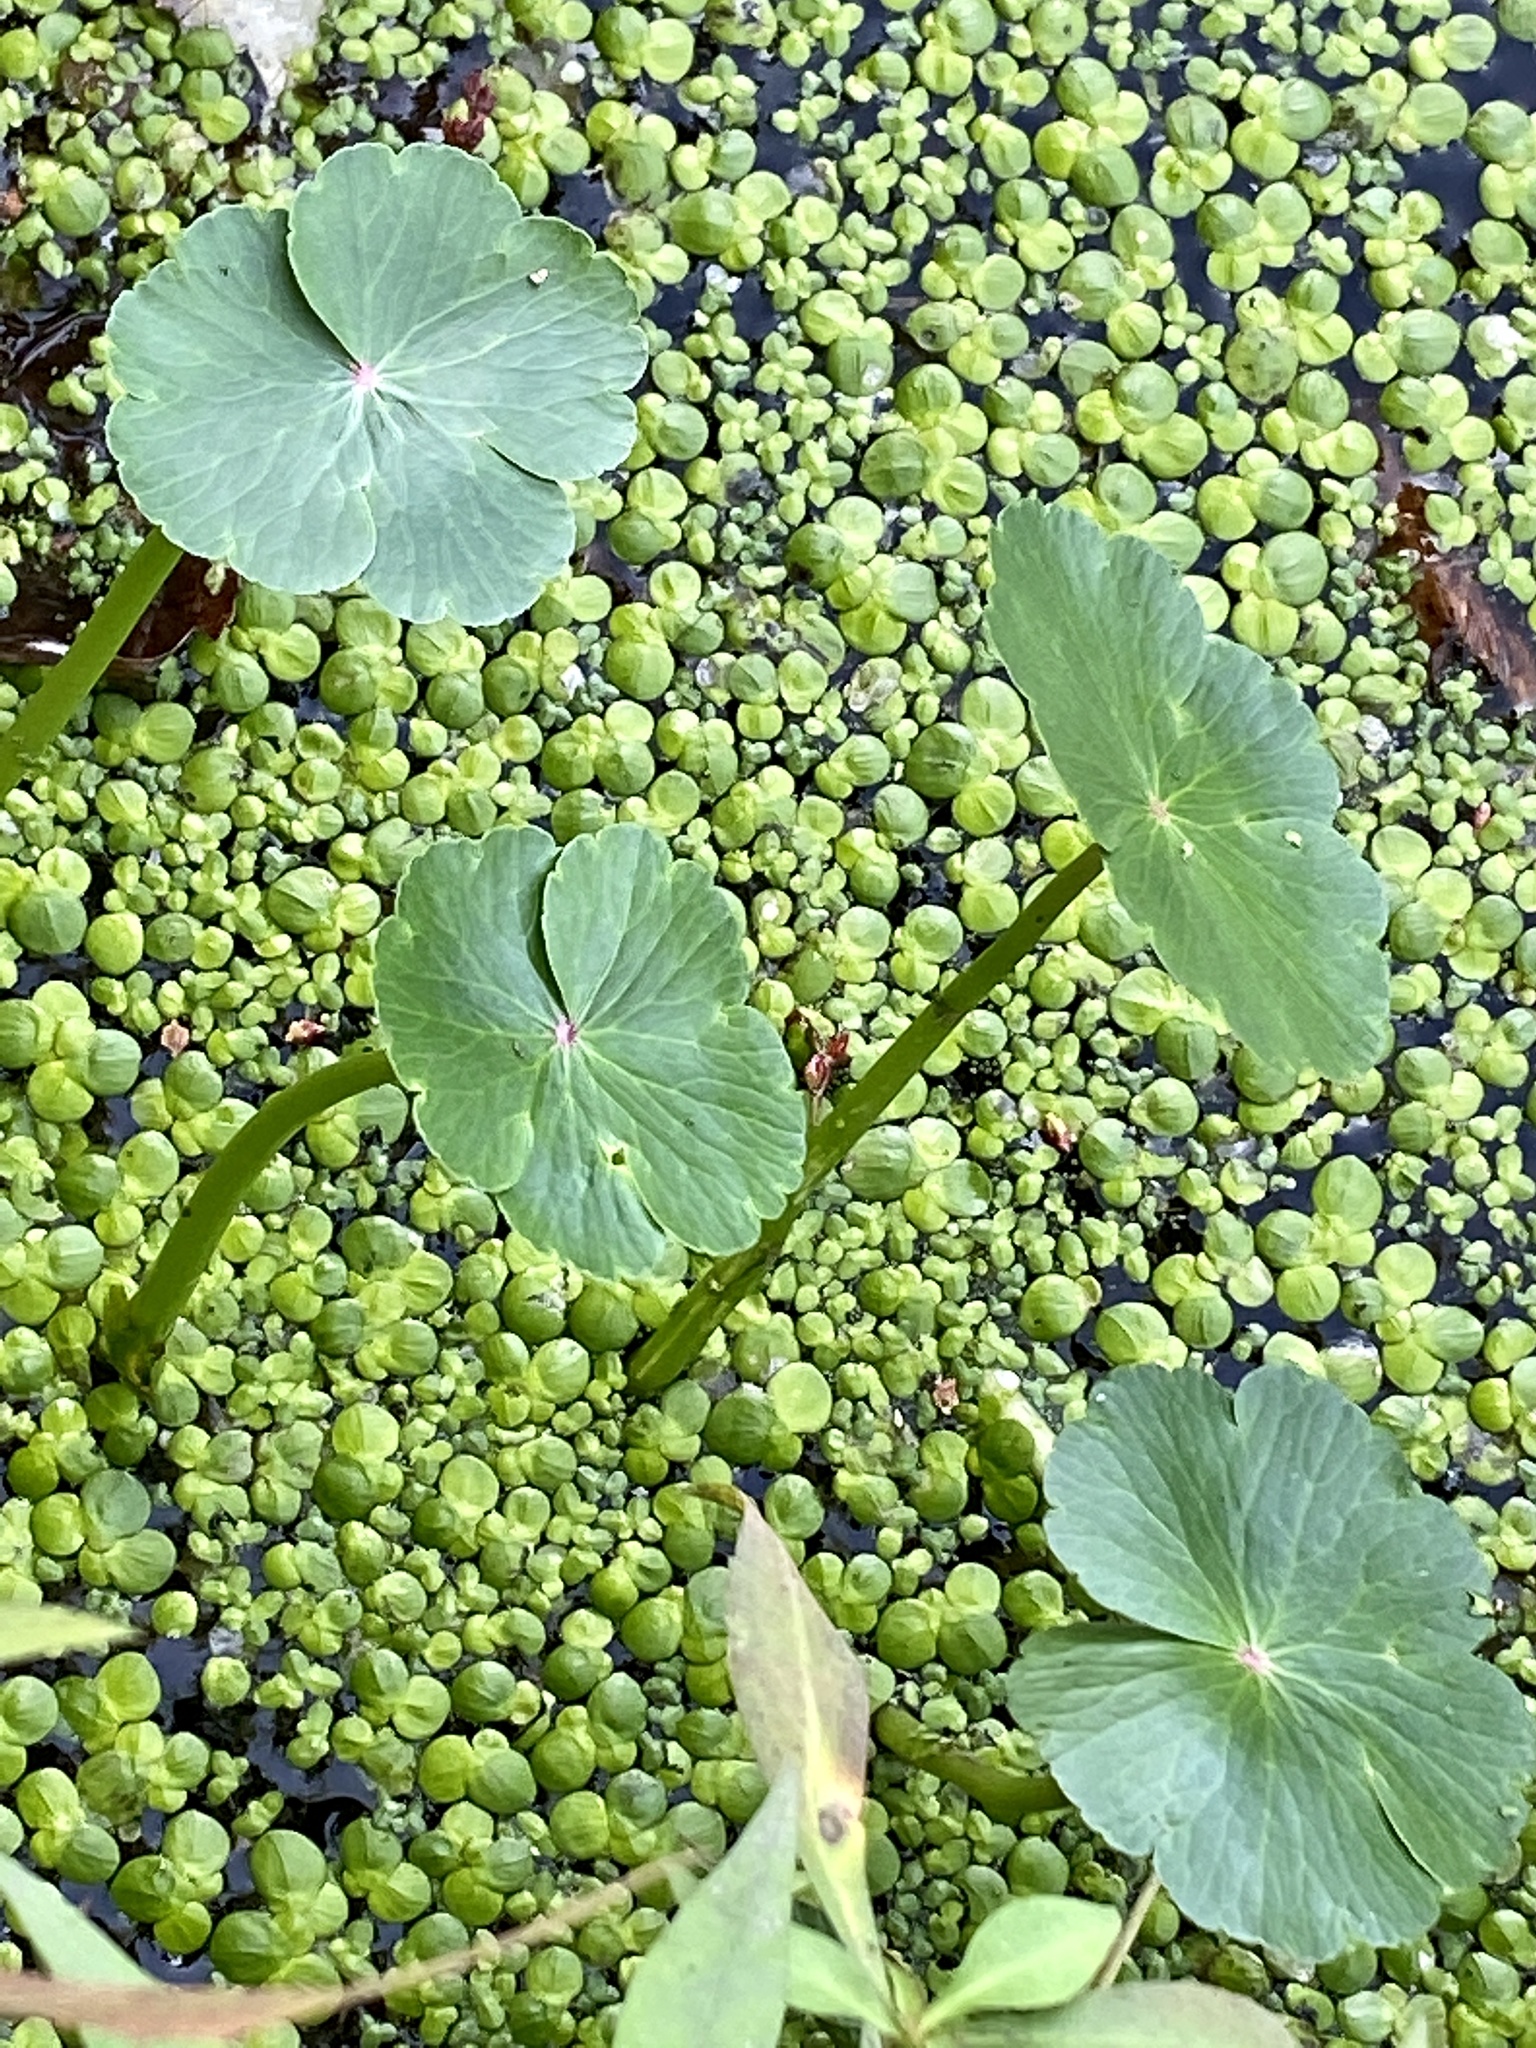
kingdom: Plantae
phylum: Tracheophyta
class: Magnoliopsida
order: Apiales
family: Araliaceae
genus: Hydrocotyle
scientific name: Hydrocotyle ranunculoides
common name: Floating pennywort
